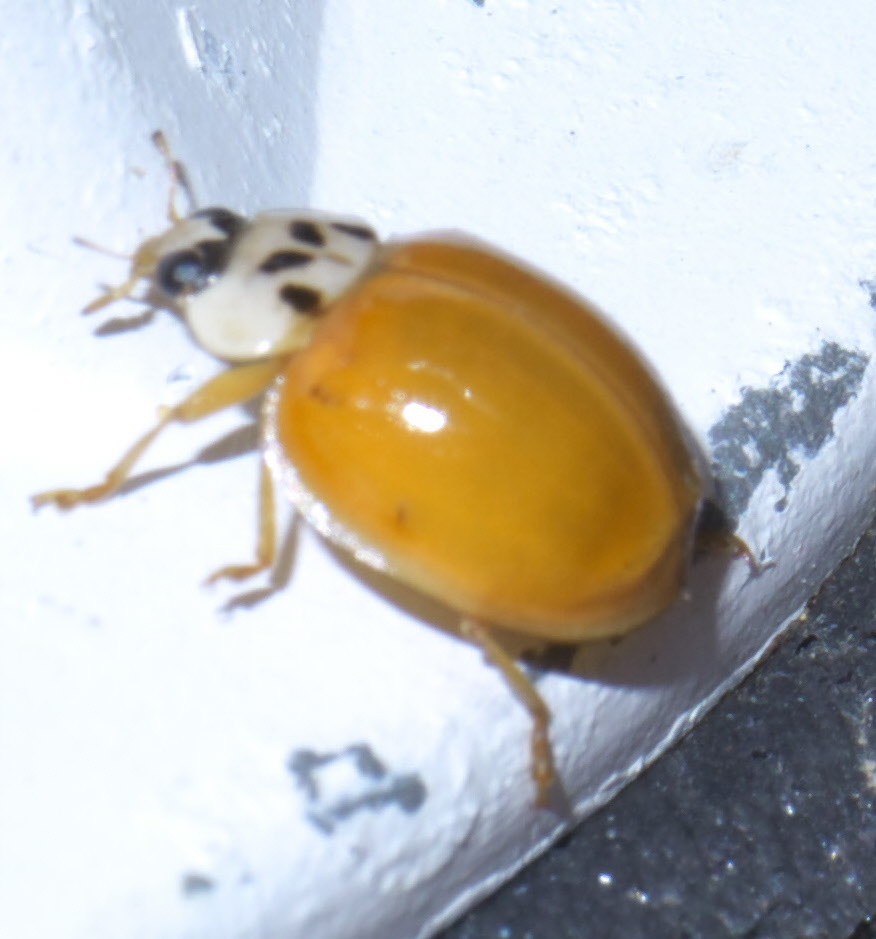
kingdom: Animalia
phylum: Arthropoda
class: Insecta
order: Coleoptera
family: Coccinellidae
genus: Harmonia
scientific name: Harmonia axyridis
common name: Harlequin ladybird
